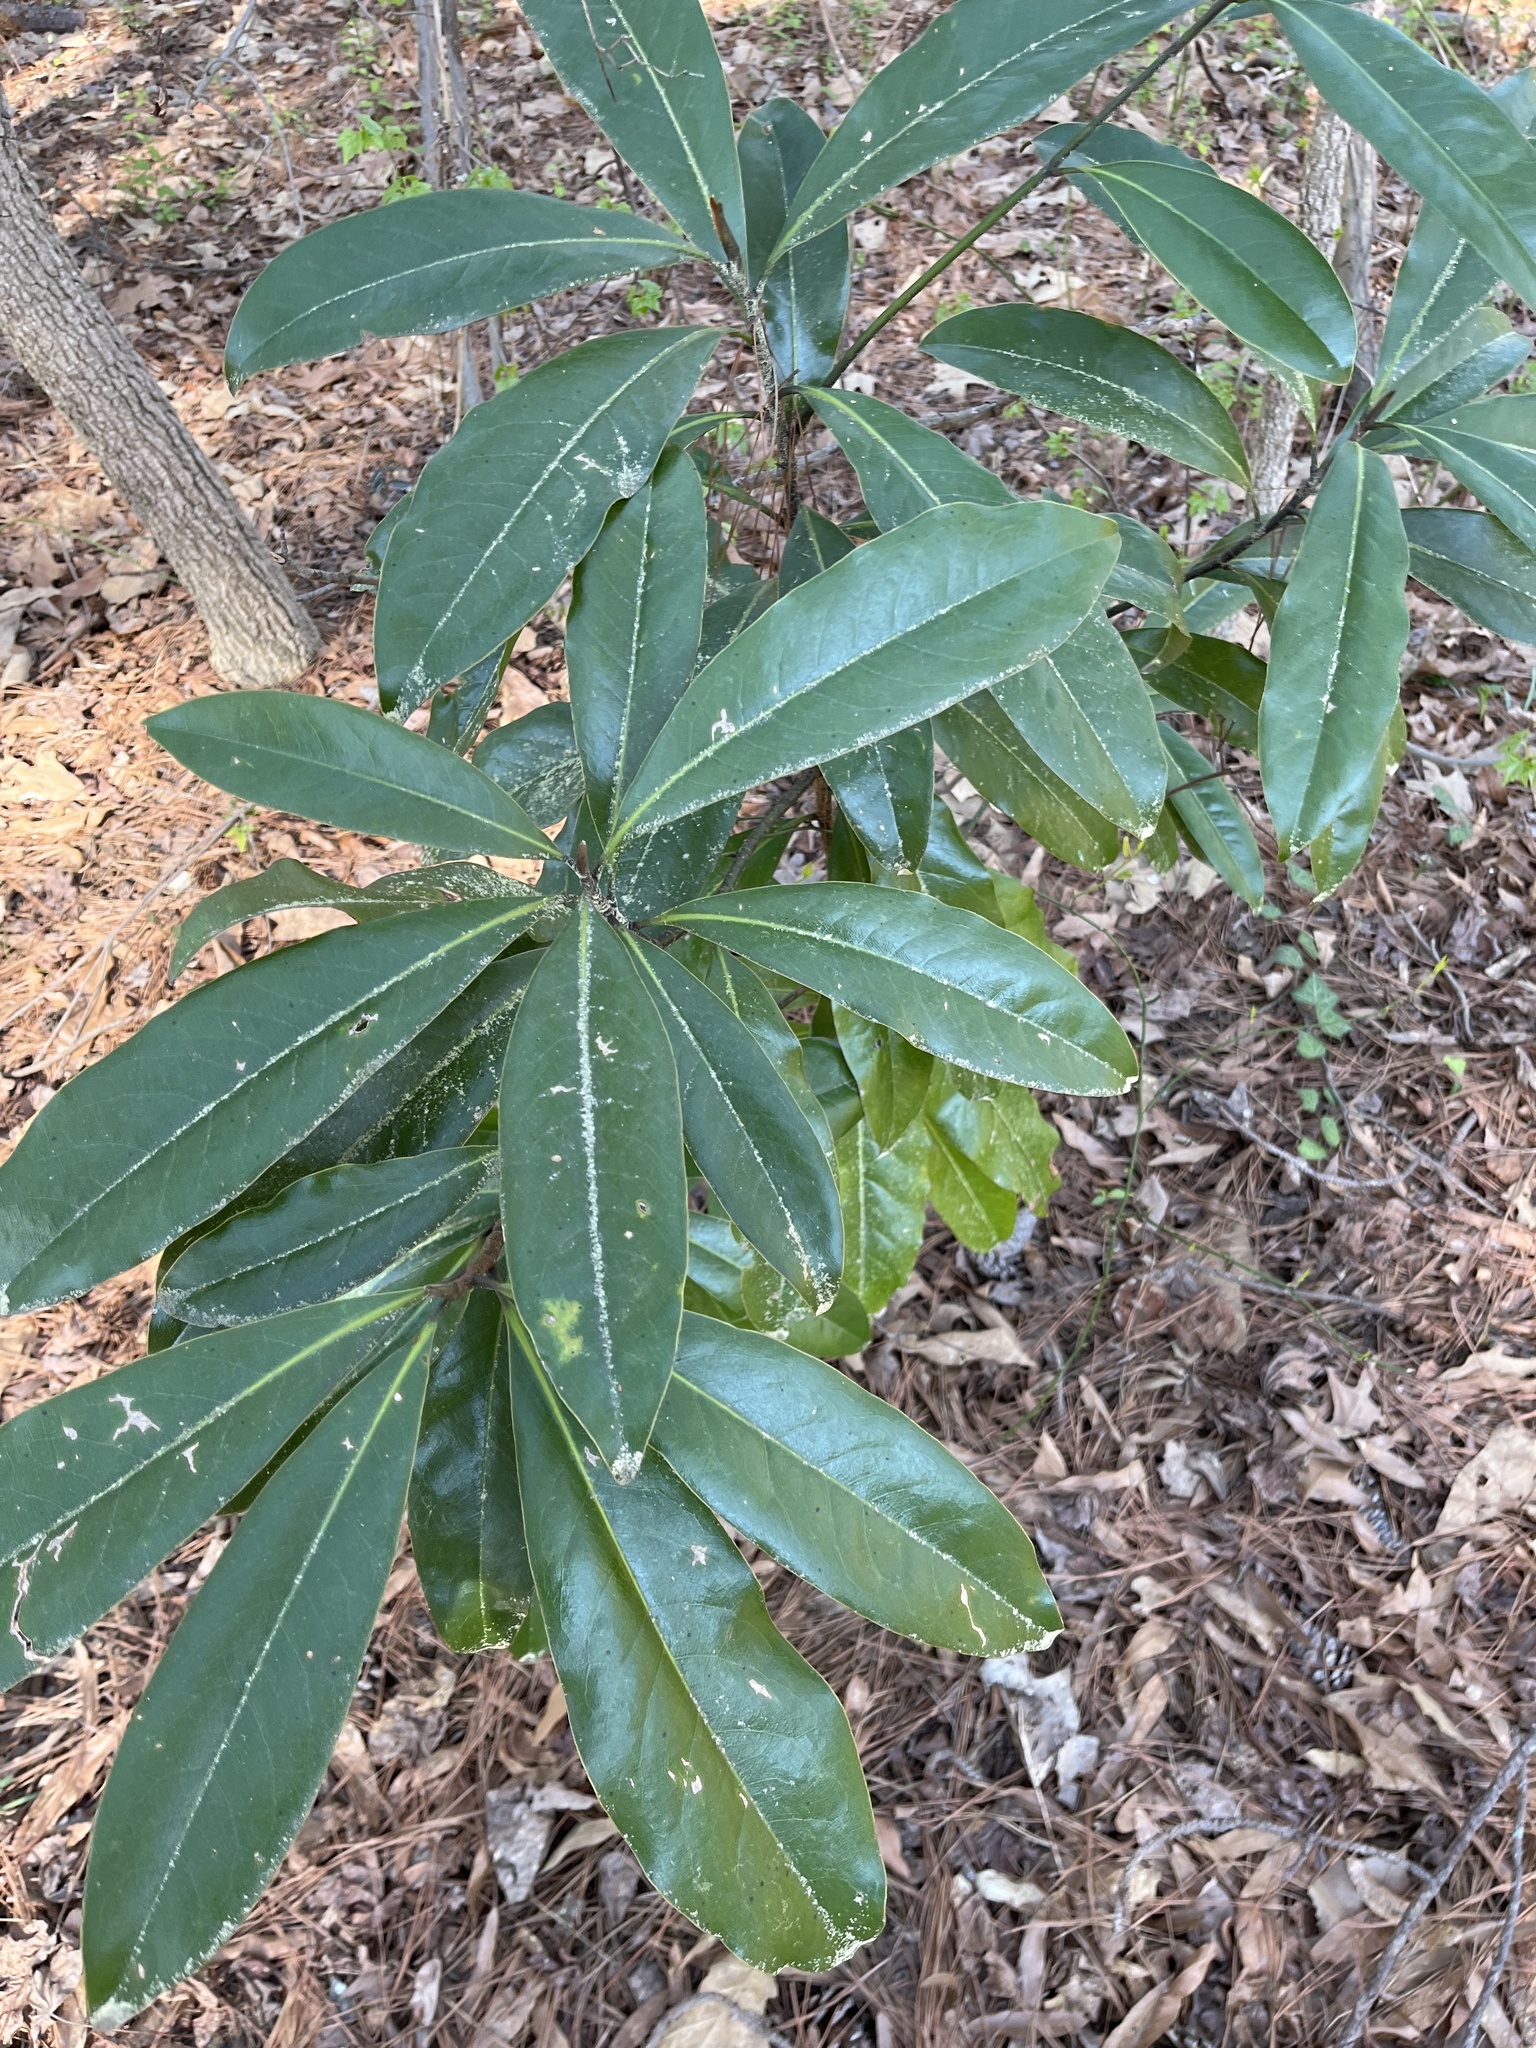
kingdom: Plantae
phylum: Tracheophyta
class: Magnoliopsida
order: Magnoliales
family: Magnoliaceae
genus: Magnolia
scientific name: Magnolia grandiflora
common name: Southern magnolia
